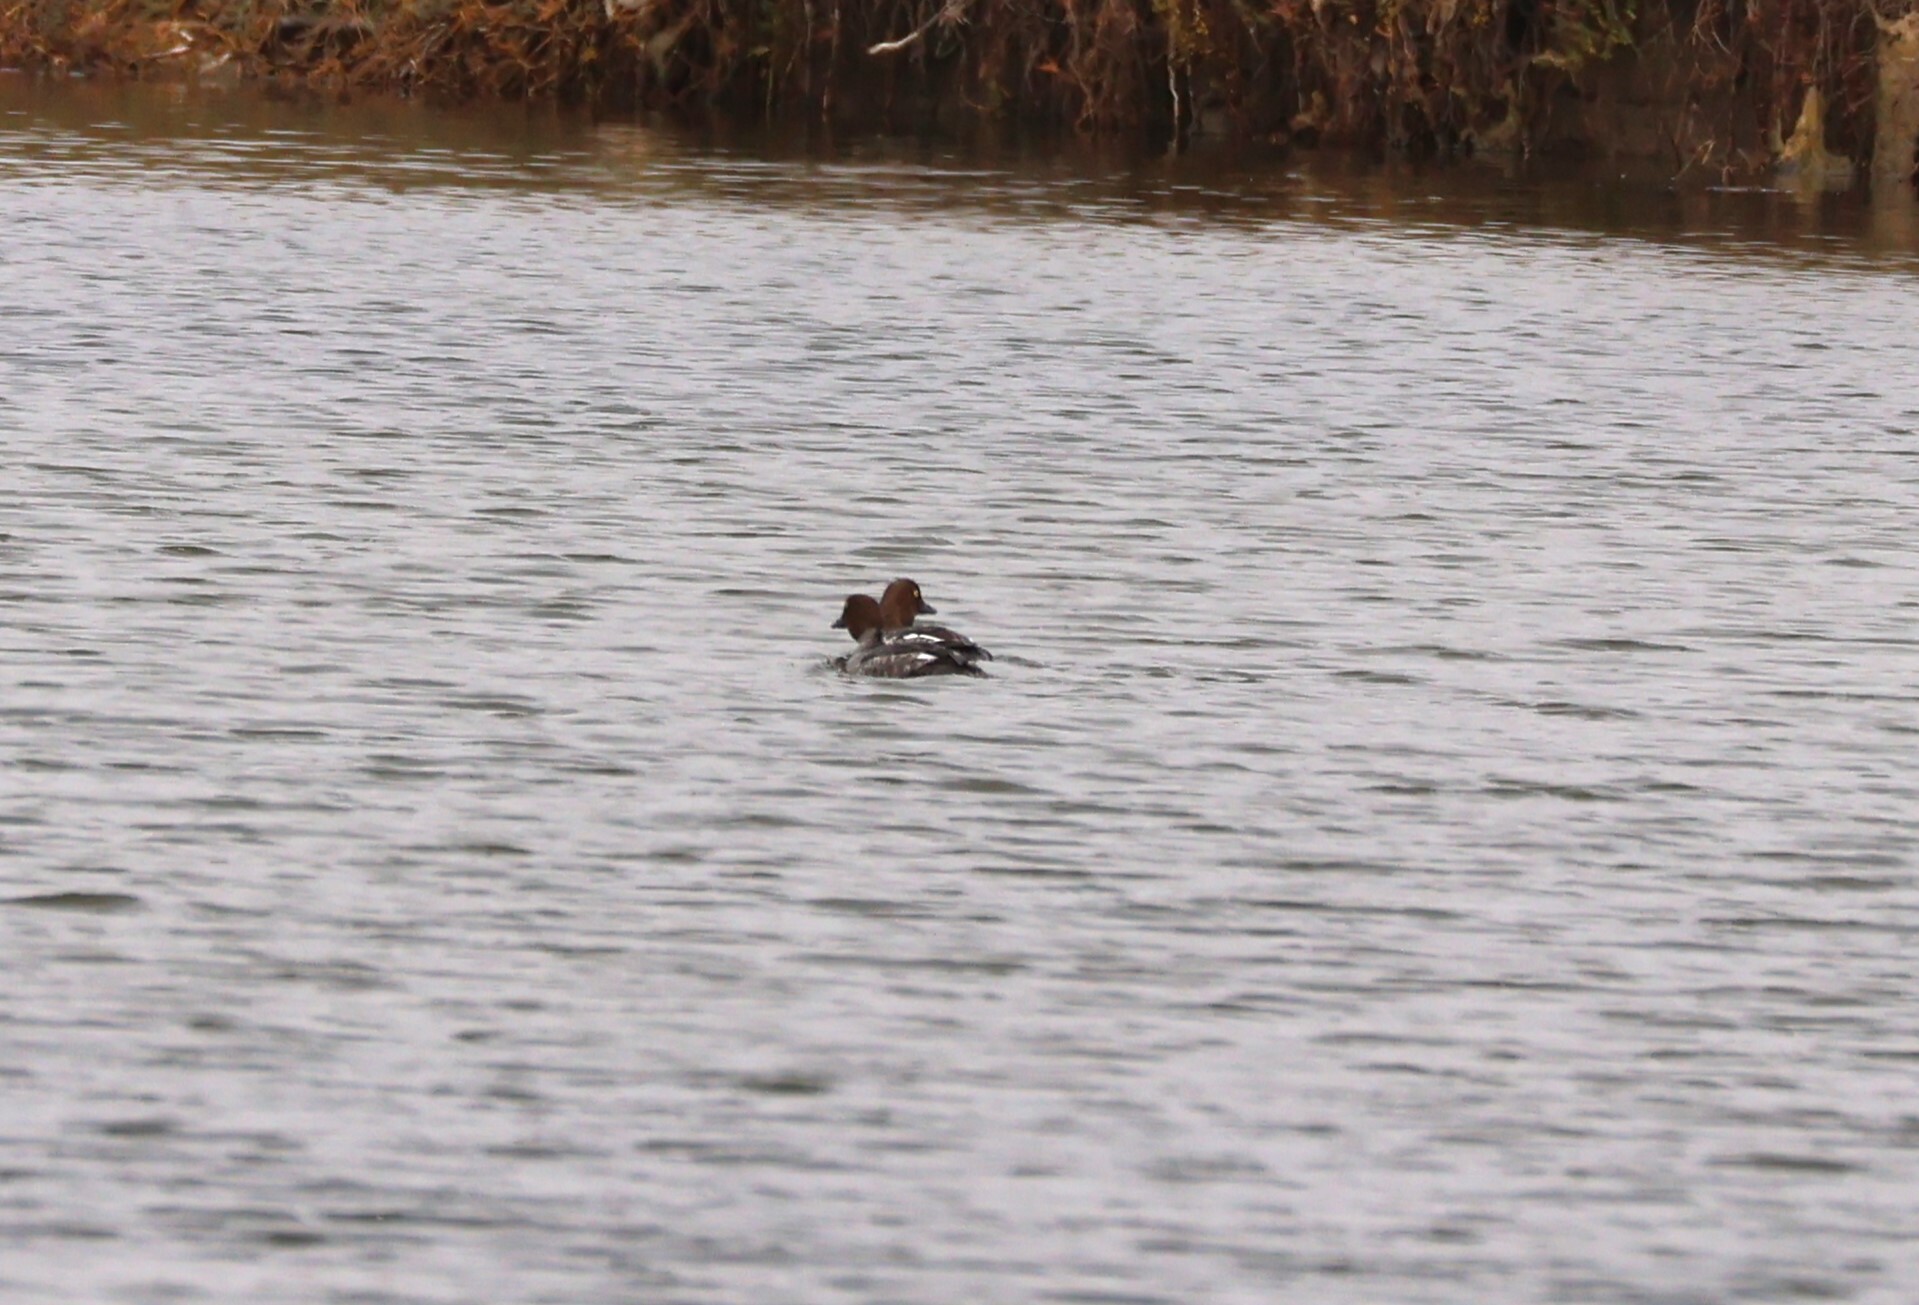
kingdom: Animalia
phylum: Chordata
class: Aves
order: Anseriformes
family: Anatidae
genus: Bucephala
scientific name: Bucephala clangula
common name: Common goldeneye
